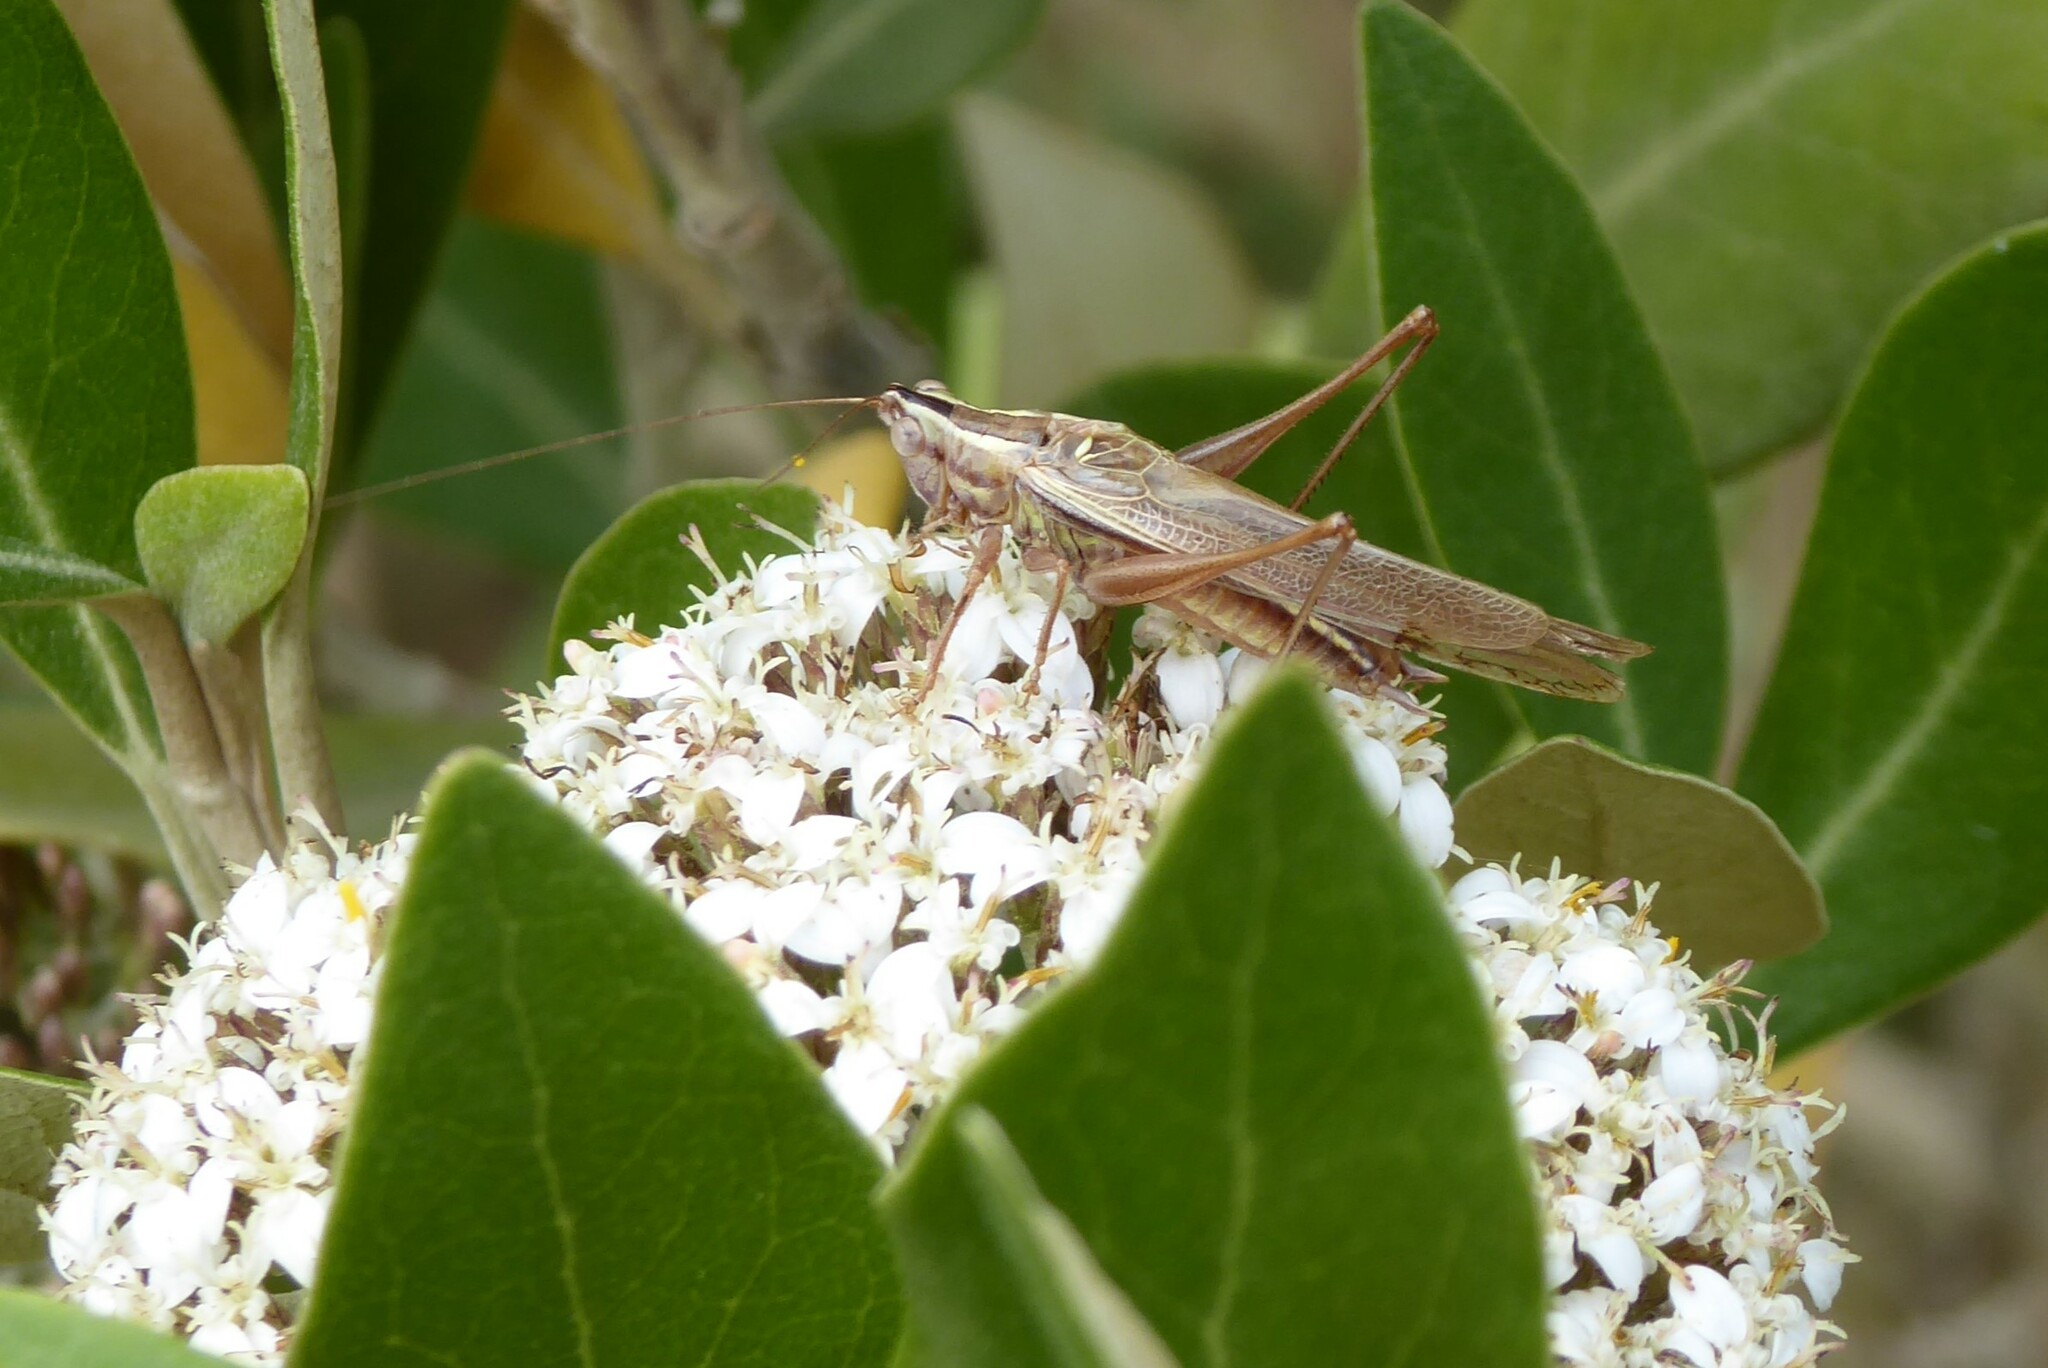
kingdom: Animalia
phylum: Arthropoda
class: Insecta
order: Orthoptera
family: Tettigoniidae
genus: Conocephalus
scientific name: Conocephalus bilineatus
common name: Small meadow katydid
